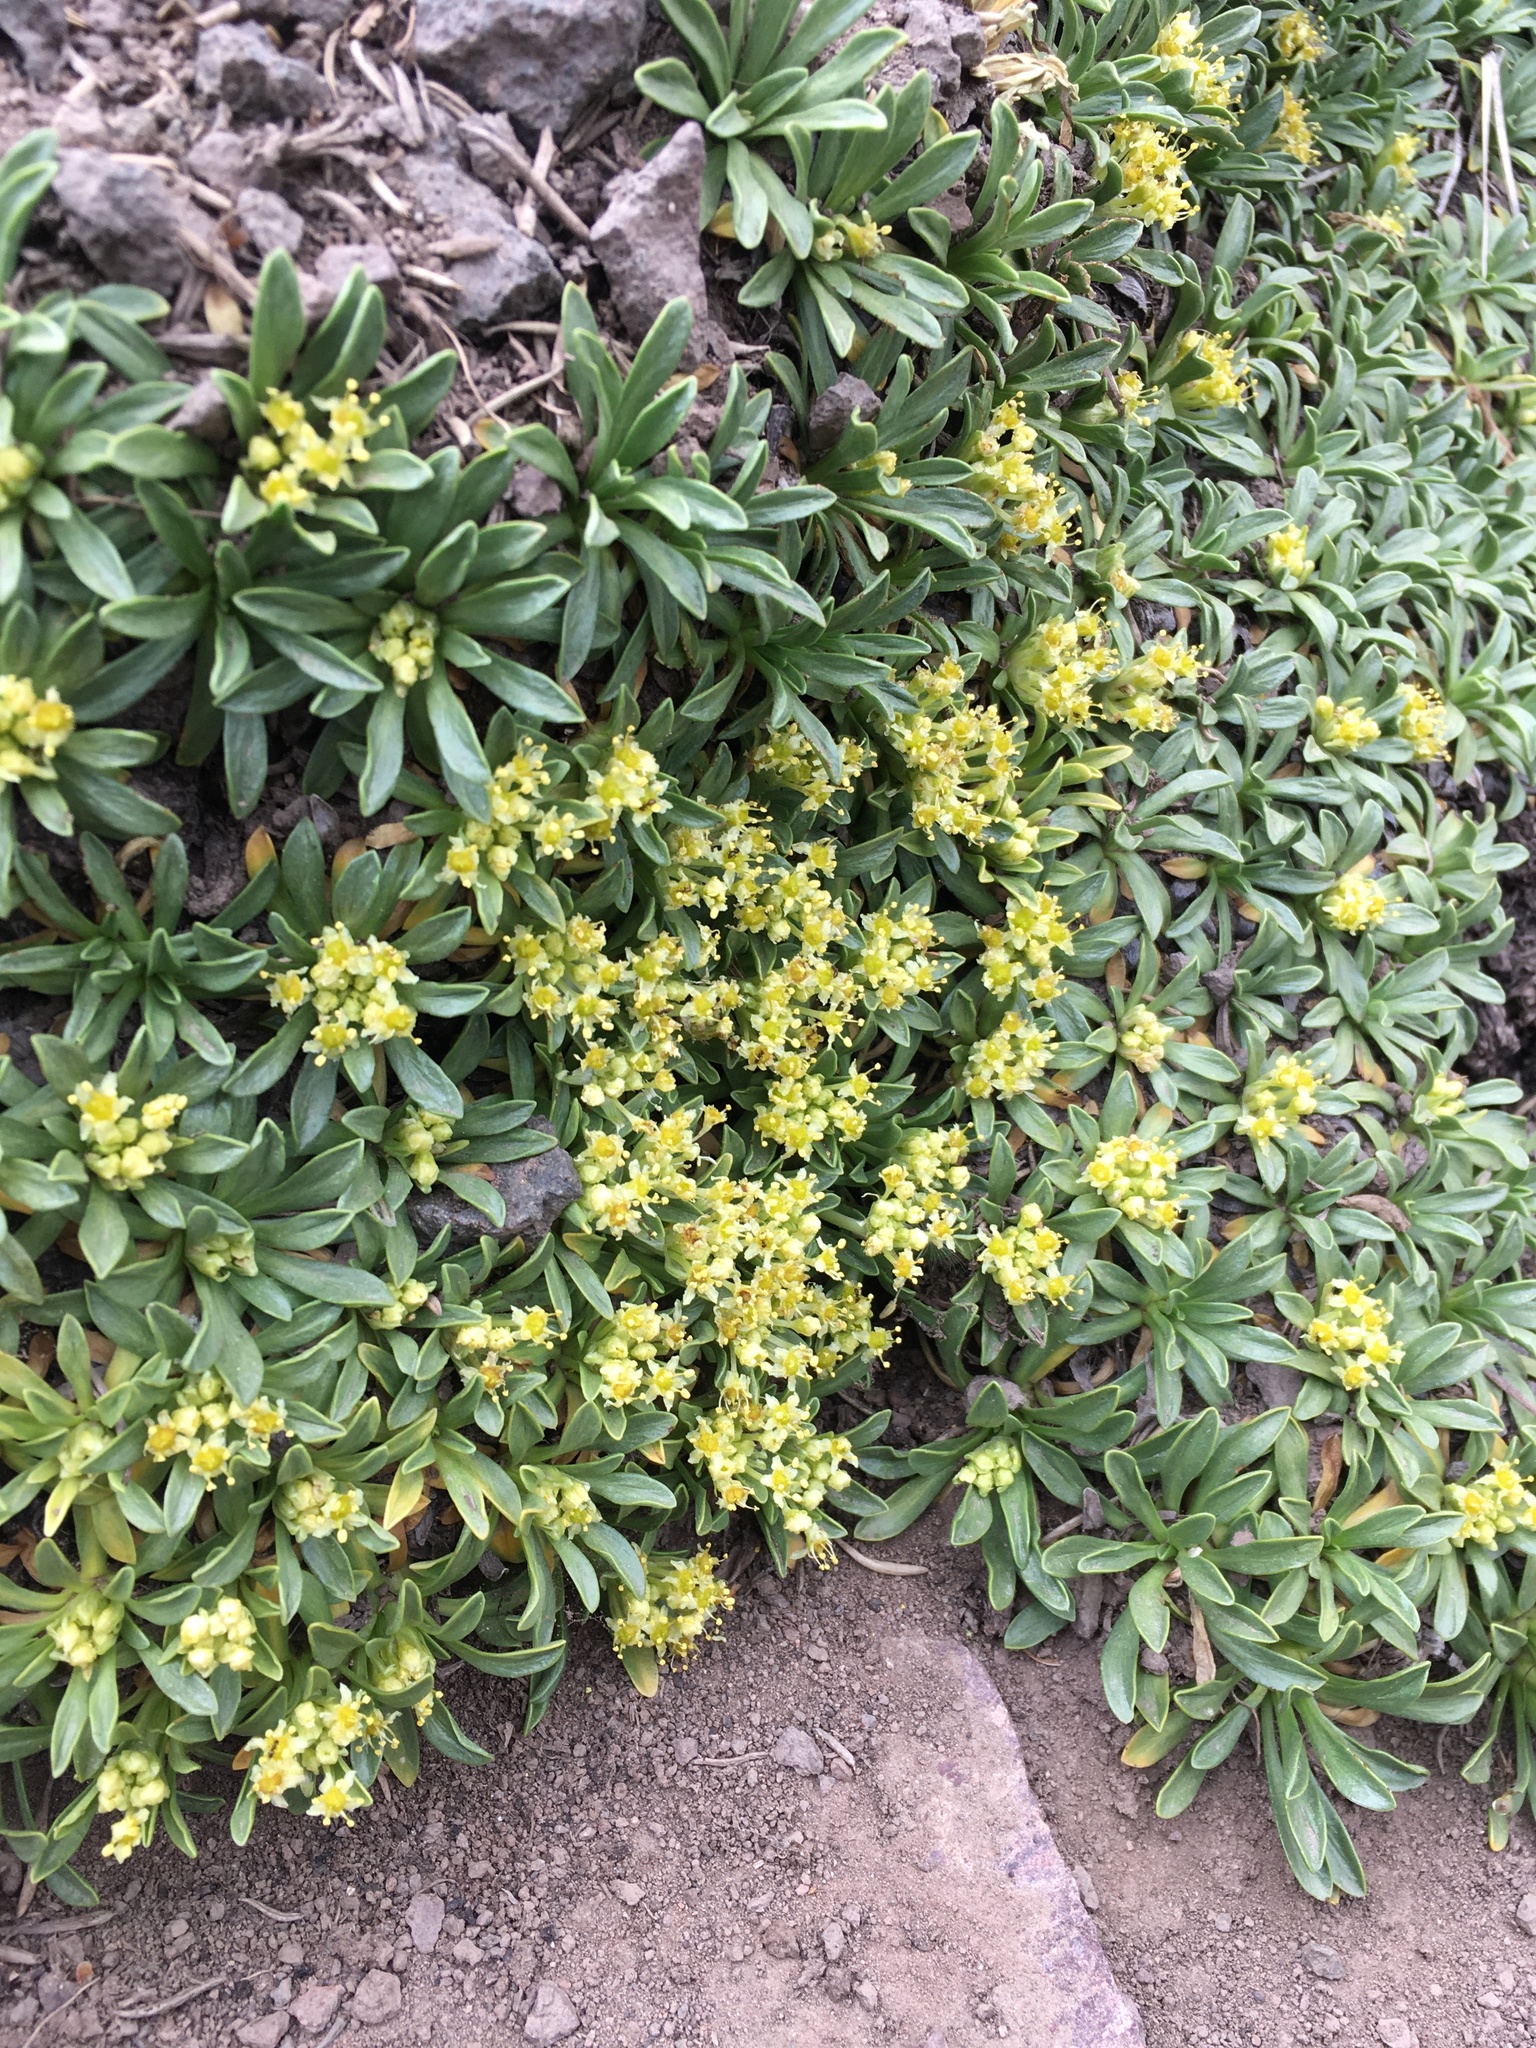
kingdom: Plantae
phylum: Tracheophyta
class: Magnoliopsida
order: Apiales
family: Apiaceae
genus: Azorella
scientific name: Azorella ruizii
